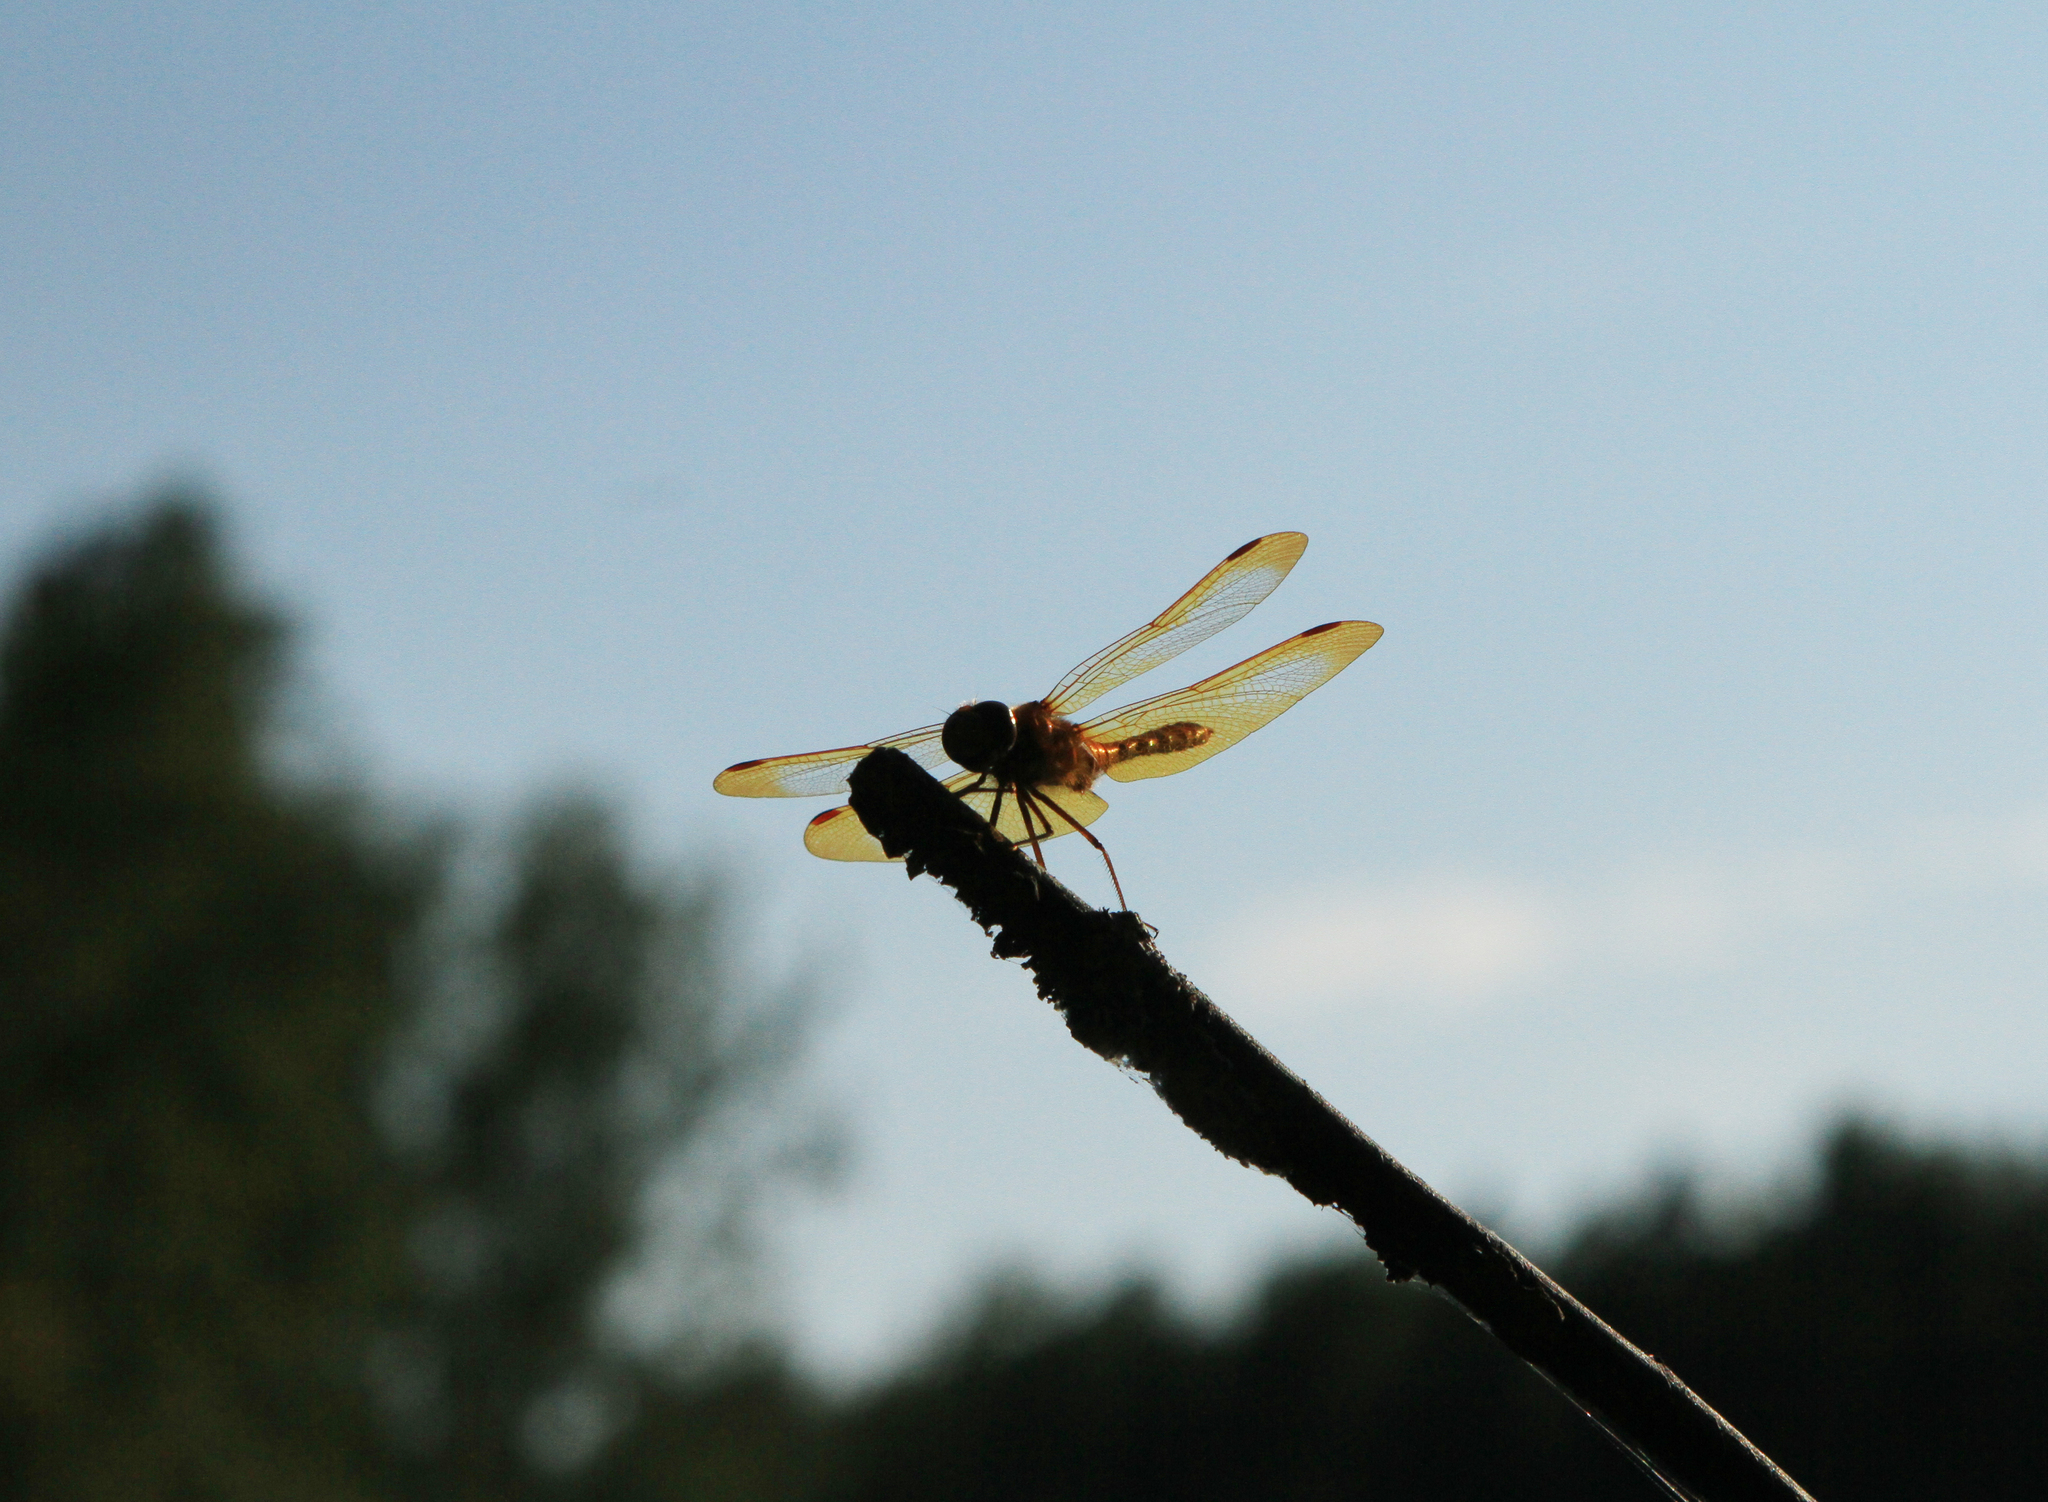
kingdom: Animalia
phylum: Arthropoda
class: Insecta
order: Odonata
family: Libellulidae
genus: Sympetrum
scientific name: Sympetrum croceolum
